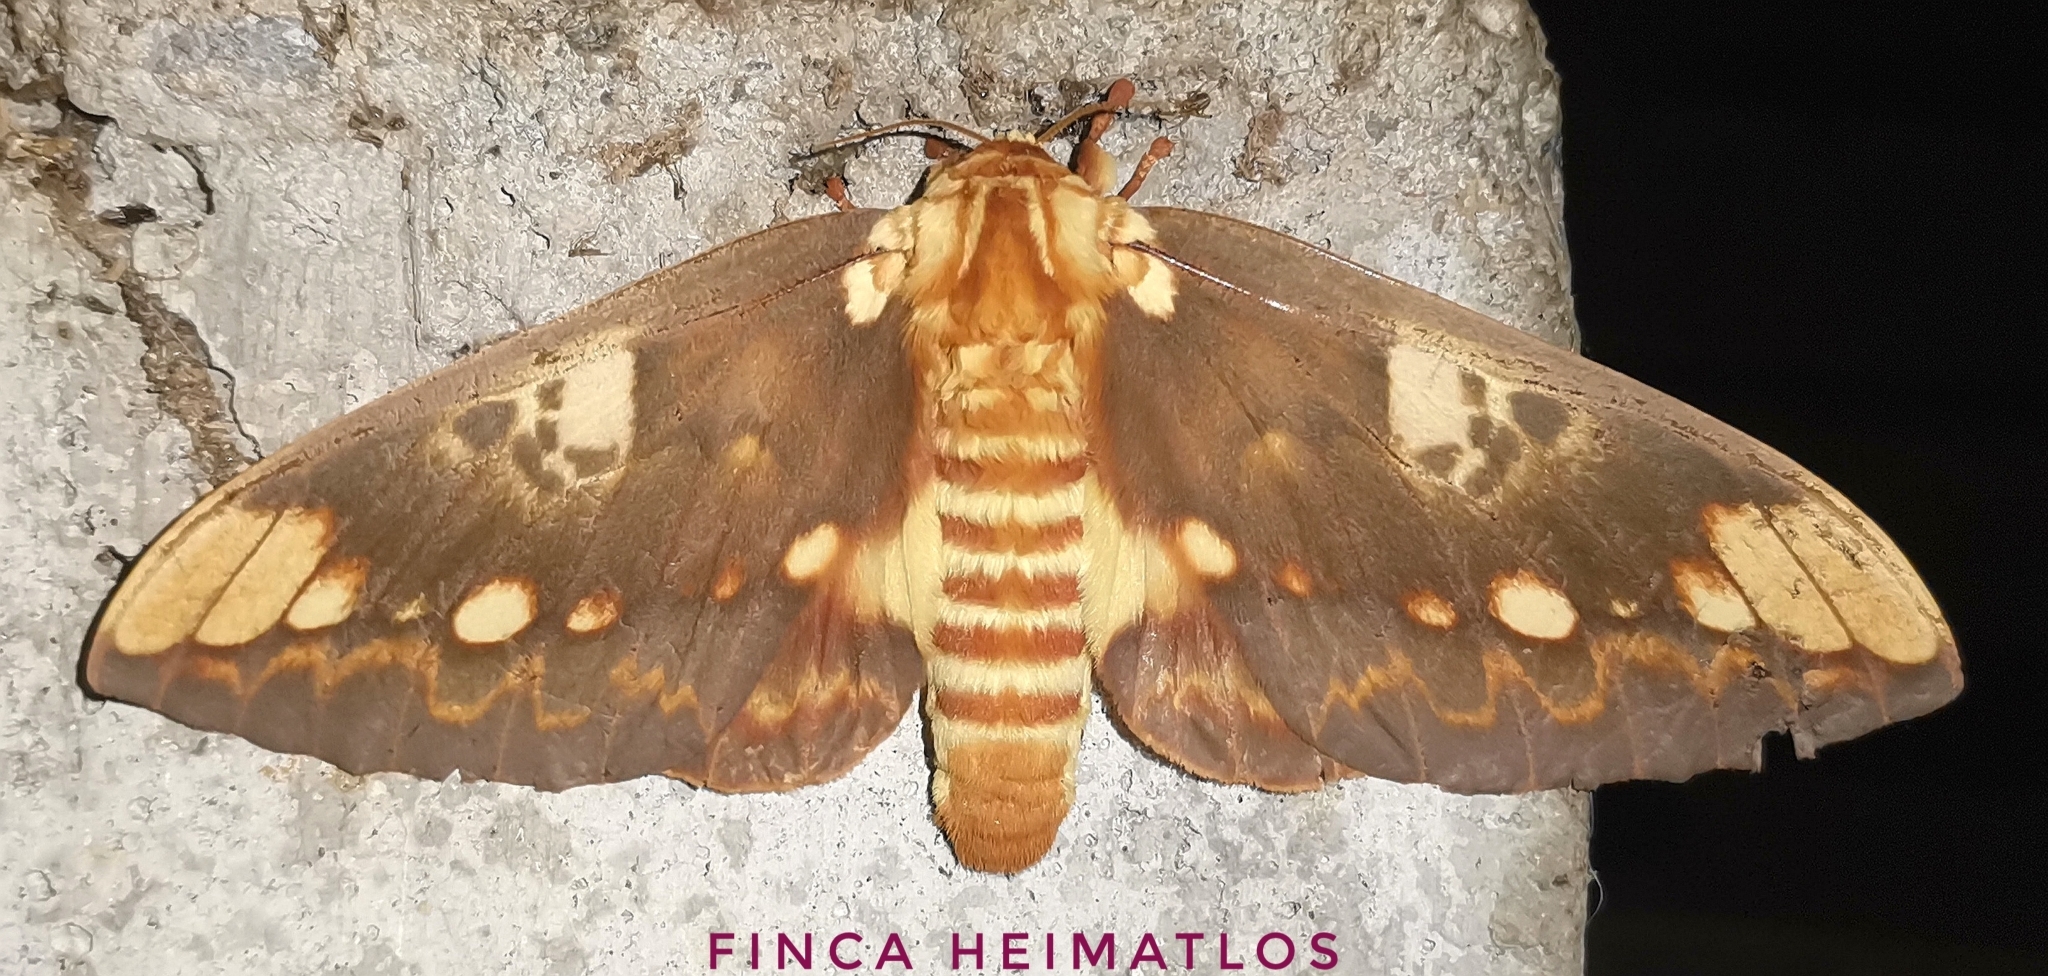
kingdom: Animalia
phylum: Arthropoda
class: Insecta
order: Lepidoptera
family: Saturniidae
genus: Citheronia
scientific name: Citheronia hamifera
